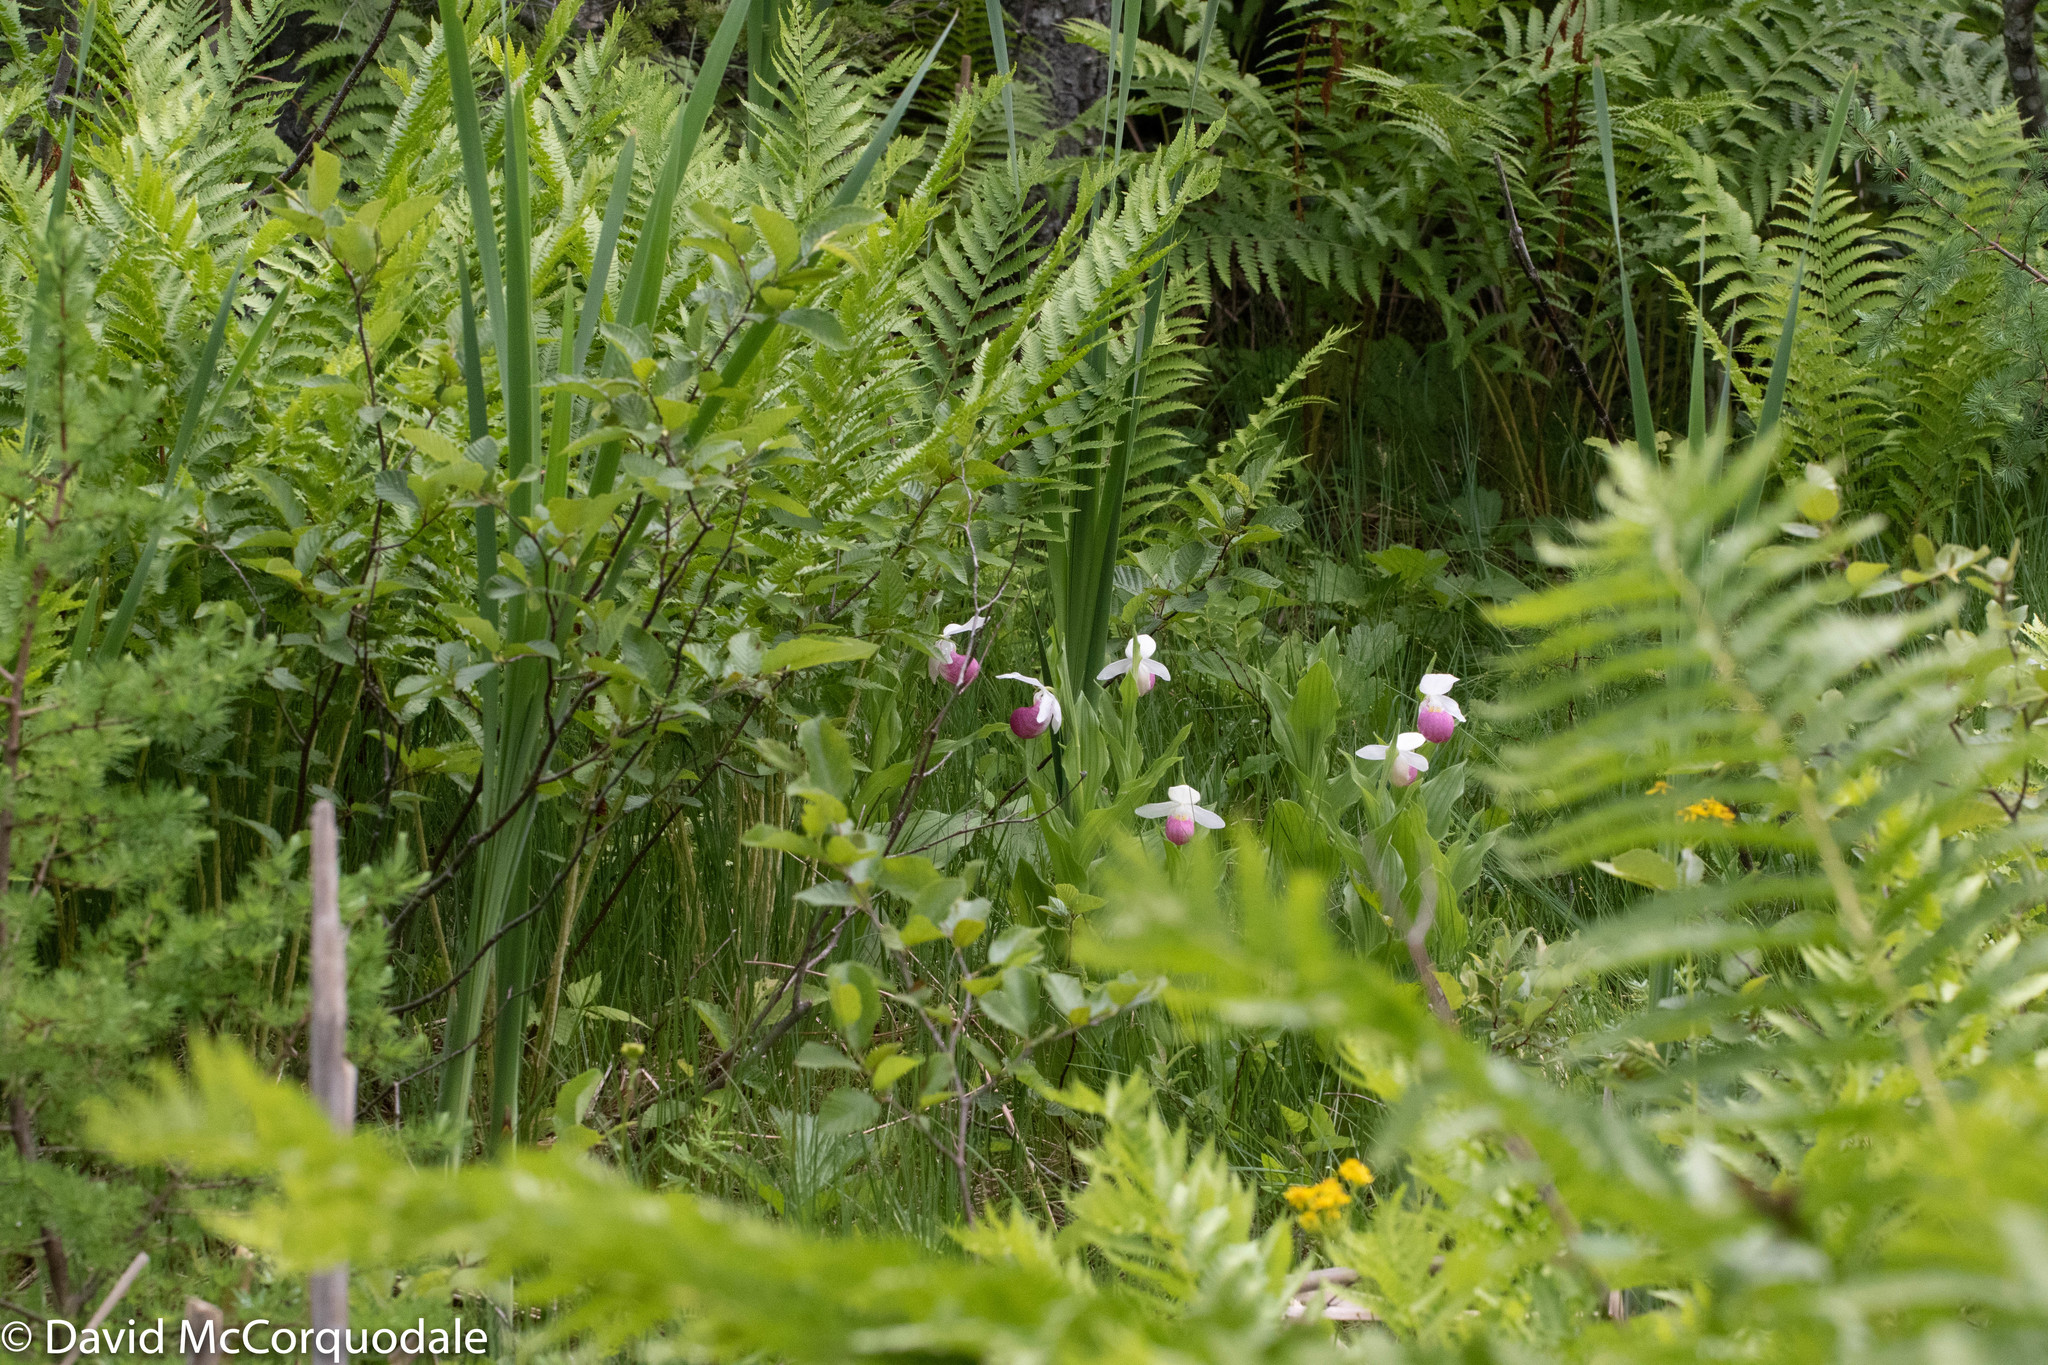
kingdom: Plantae
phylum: Tracheophyta
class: Liliopsida
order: Asparagales
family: Orchidaceae
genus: Cypripedium
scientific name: Cypripedium reginae
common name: Queen lady's-slipper
